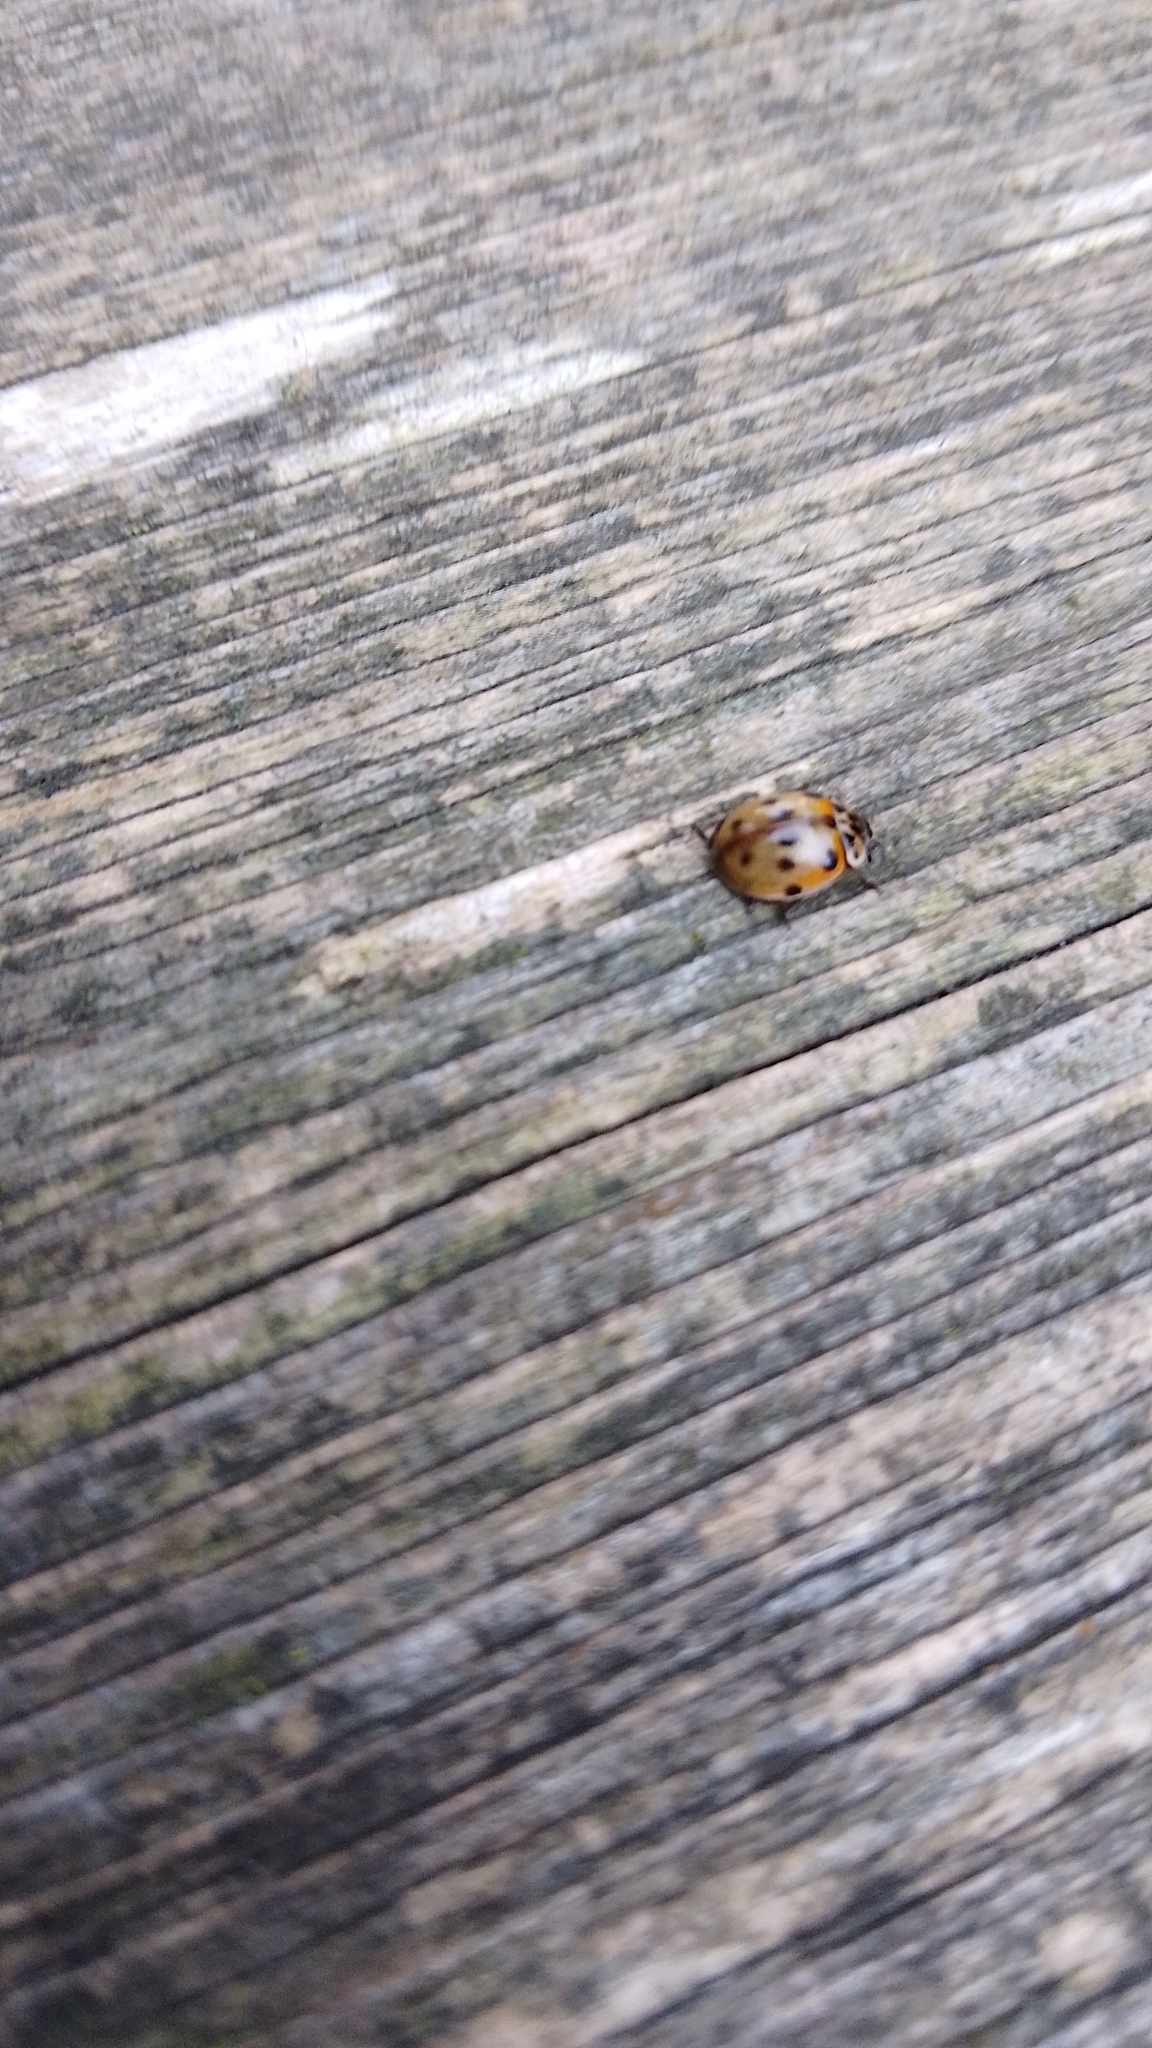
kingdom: Animalia
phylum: Arthropoda
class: Insecta
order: Coleoptera
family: Coccinellidae
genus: Adalia
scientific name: Adalia decempunctata
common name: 10-spot ladybird
